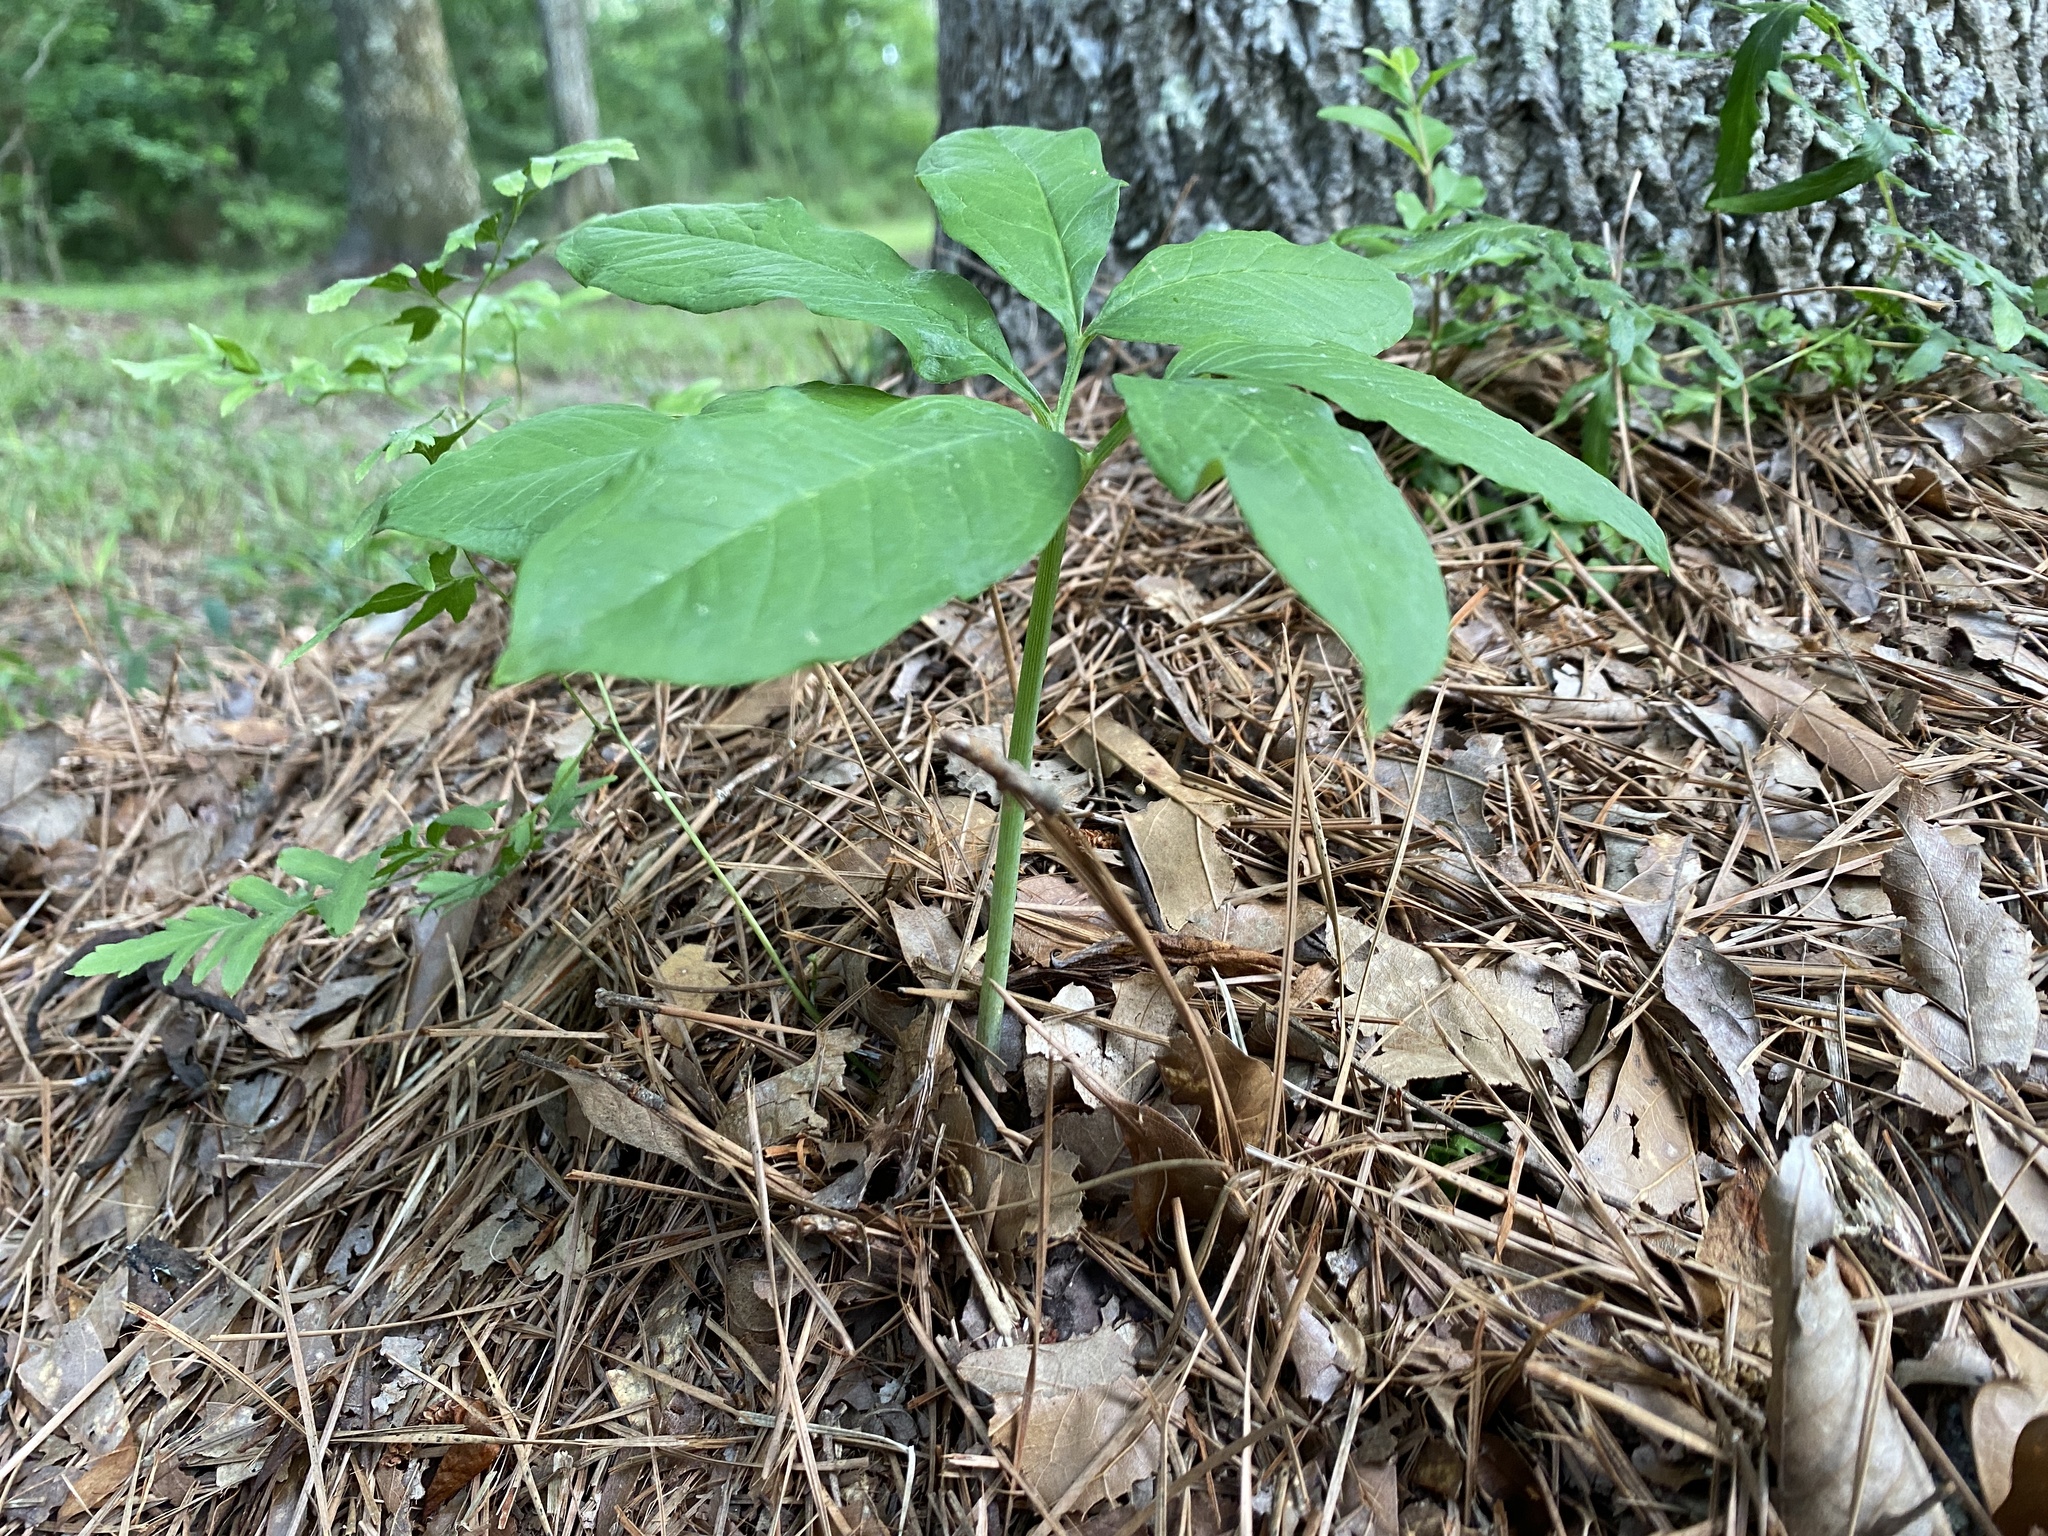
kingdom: Plantae
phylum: Tracheophyta
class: Liliopsida
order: Alismatales
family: Araceae
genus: Arisaema
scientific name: Arisaema dracontium
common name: Dragon-arum
